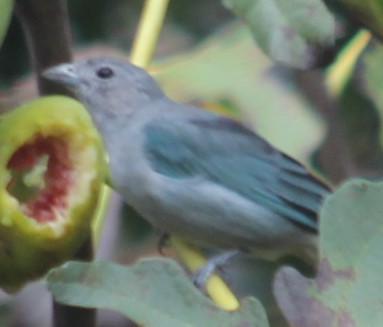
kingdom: Animalia
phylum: Chordata
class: Aves
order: Passeriformes
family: Thraupidae
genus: Thraupis
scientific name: Thraupis sayaca
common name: Sayaca tanager
